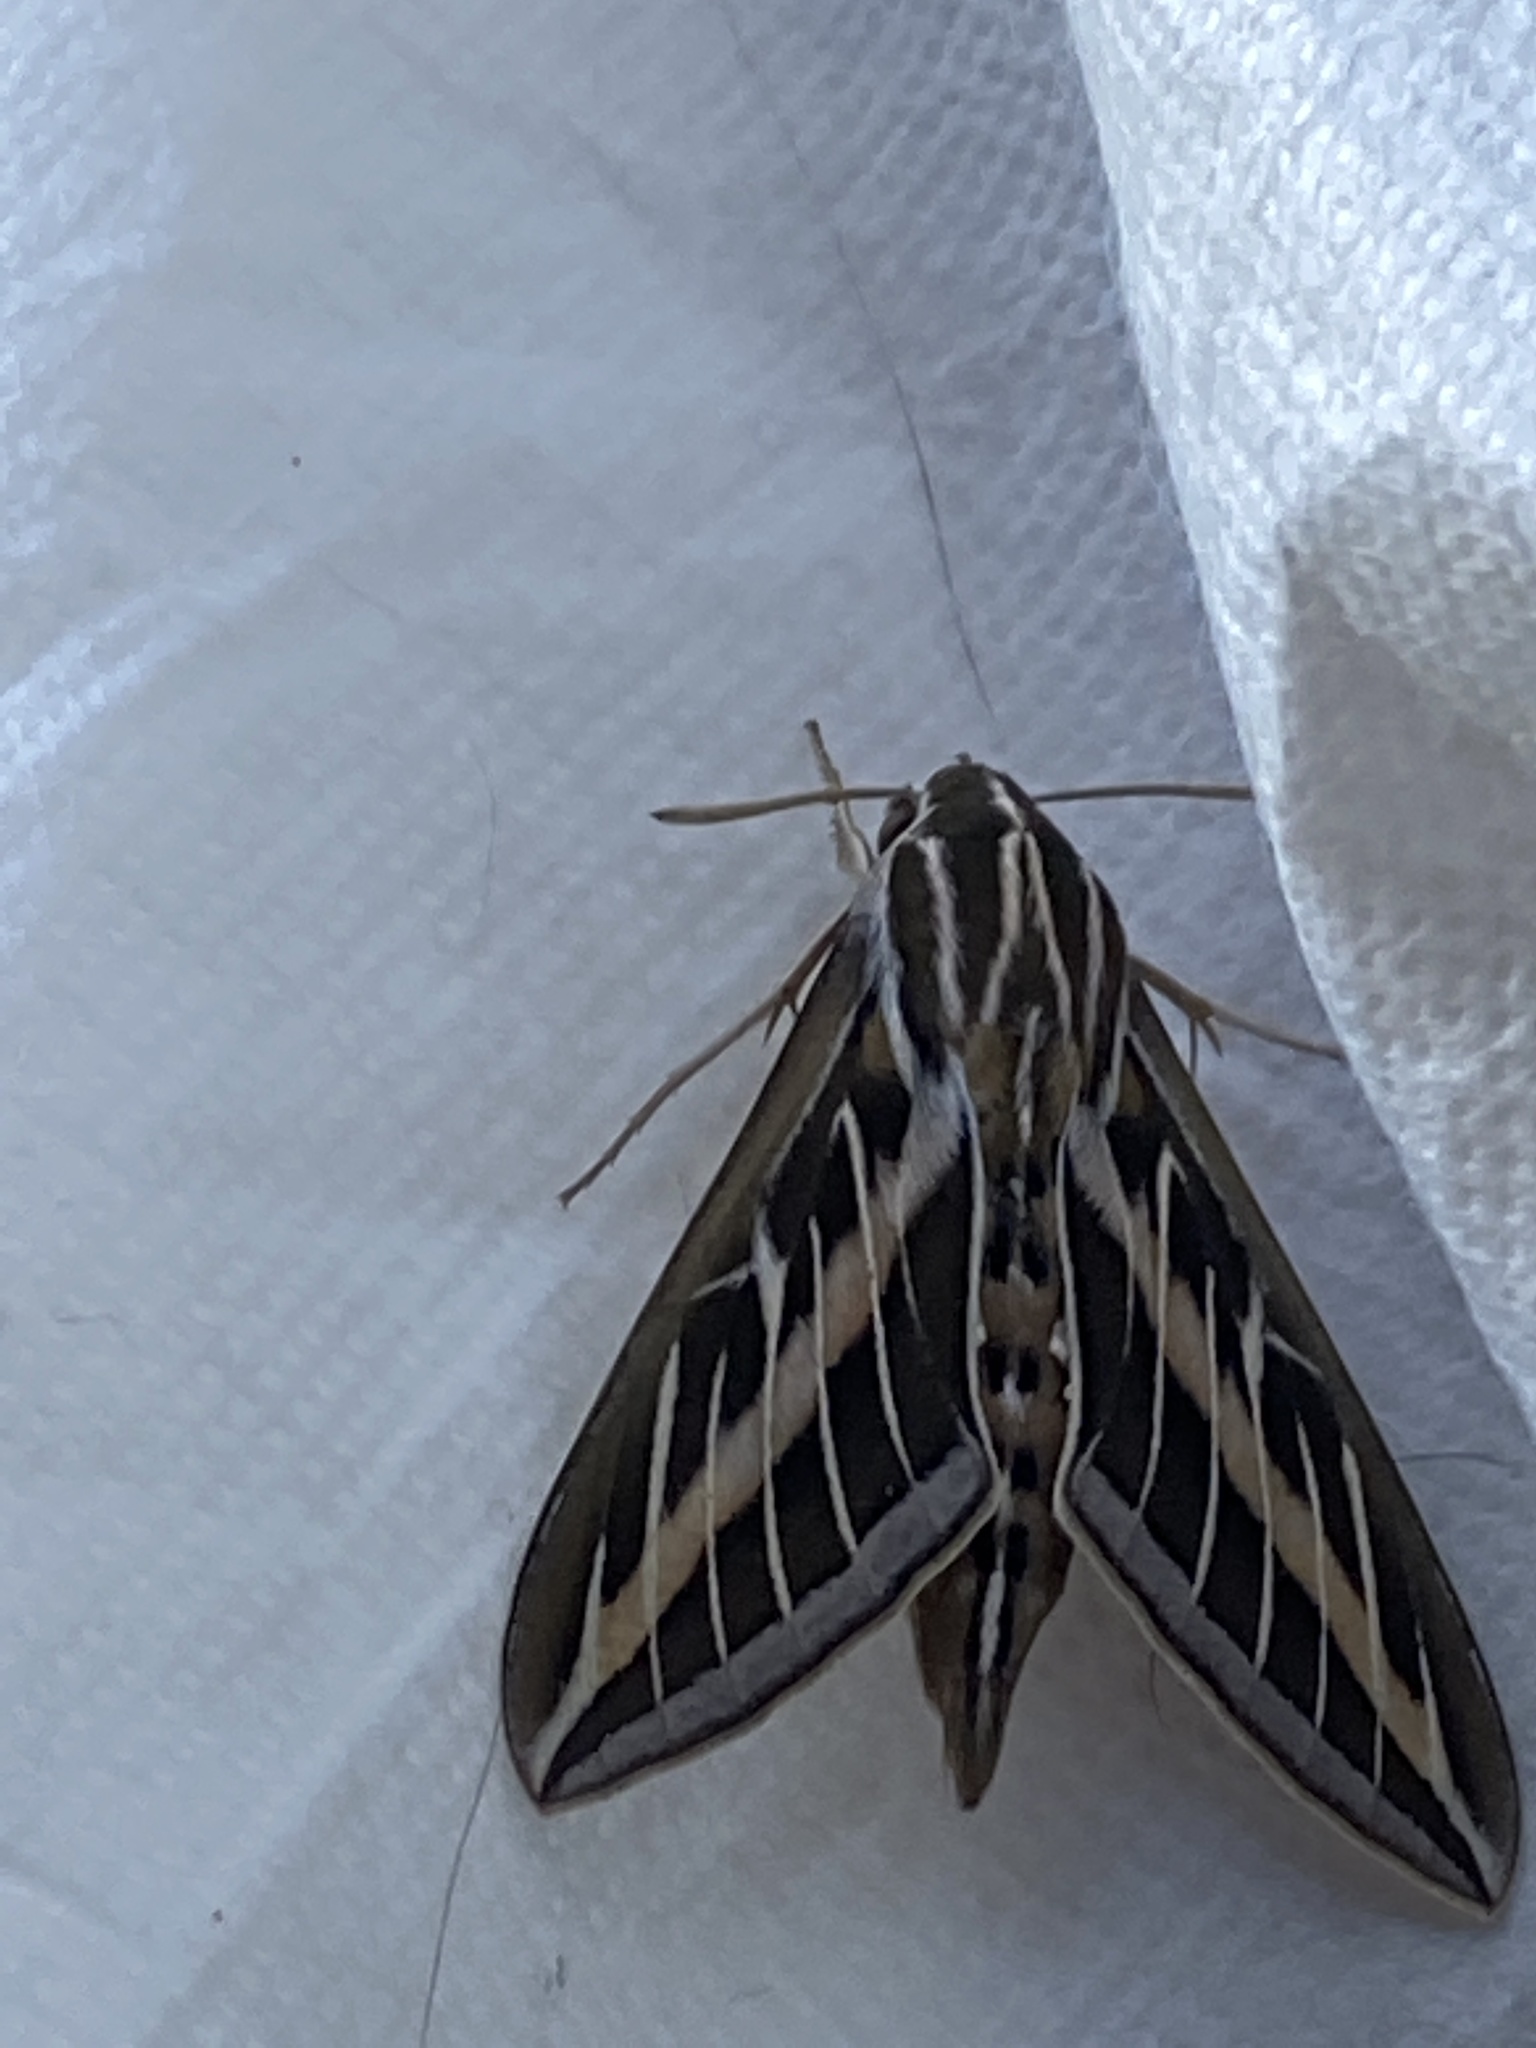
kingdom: Animalia
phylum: Arthropoda
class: Insecta
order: Lepidoptera
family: Sphingidae
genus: Hyles
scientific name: Hyles lineata
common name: White-lined sphinx
